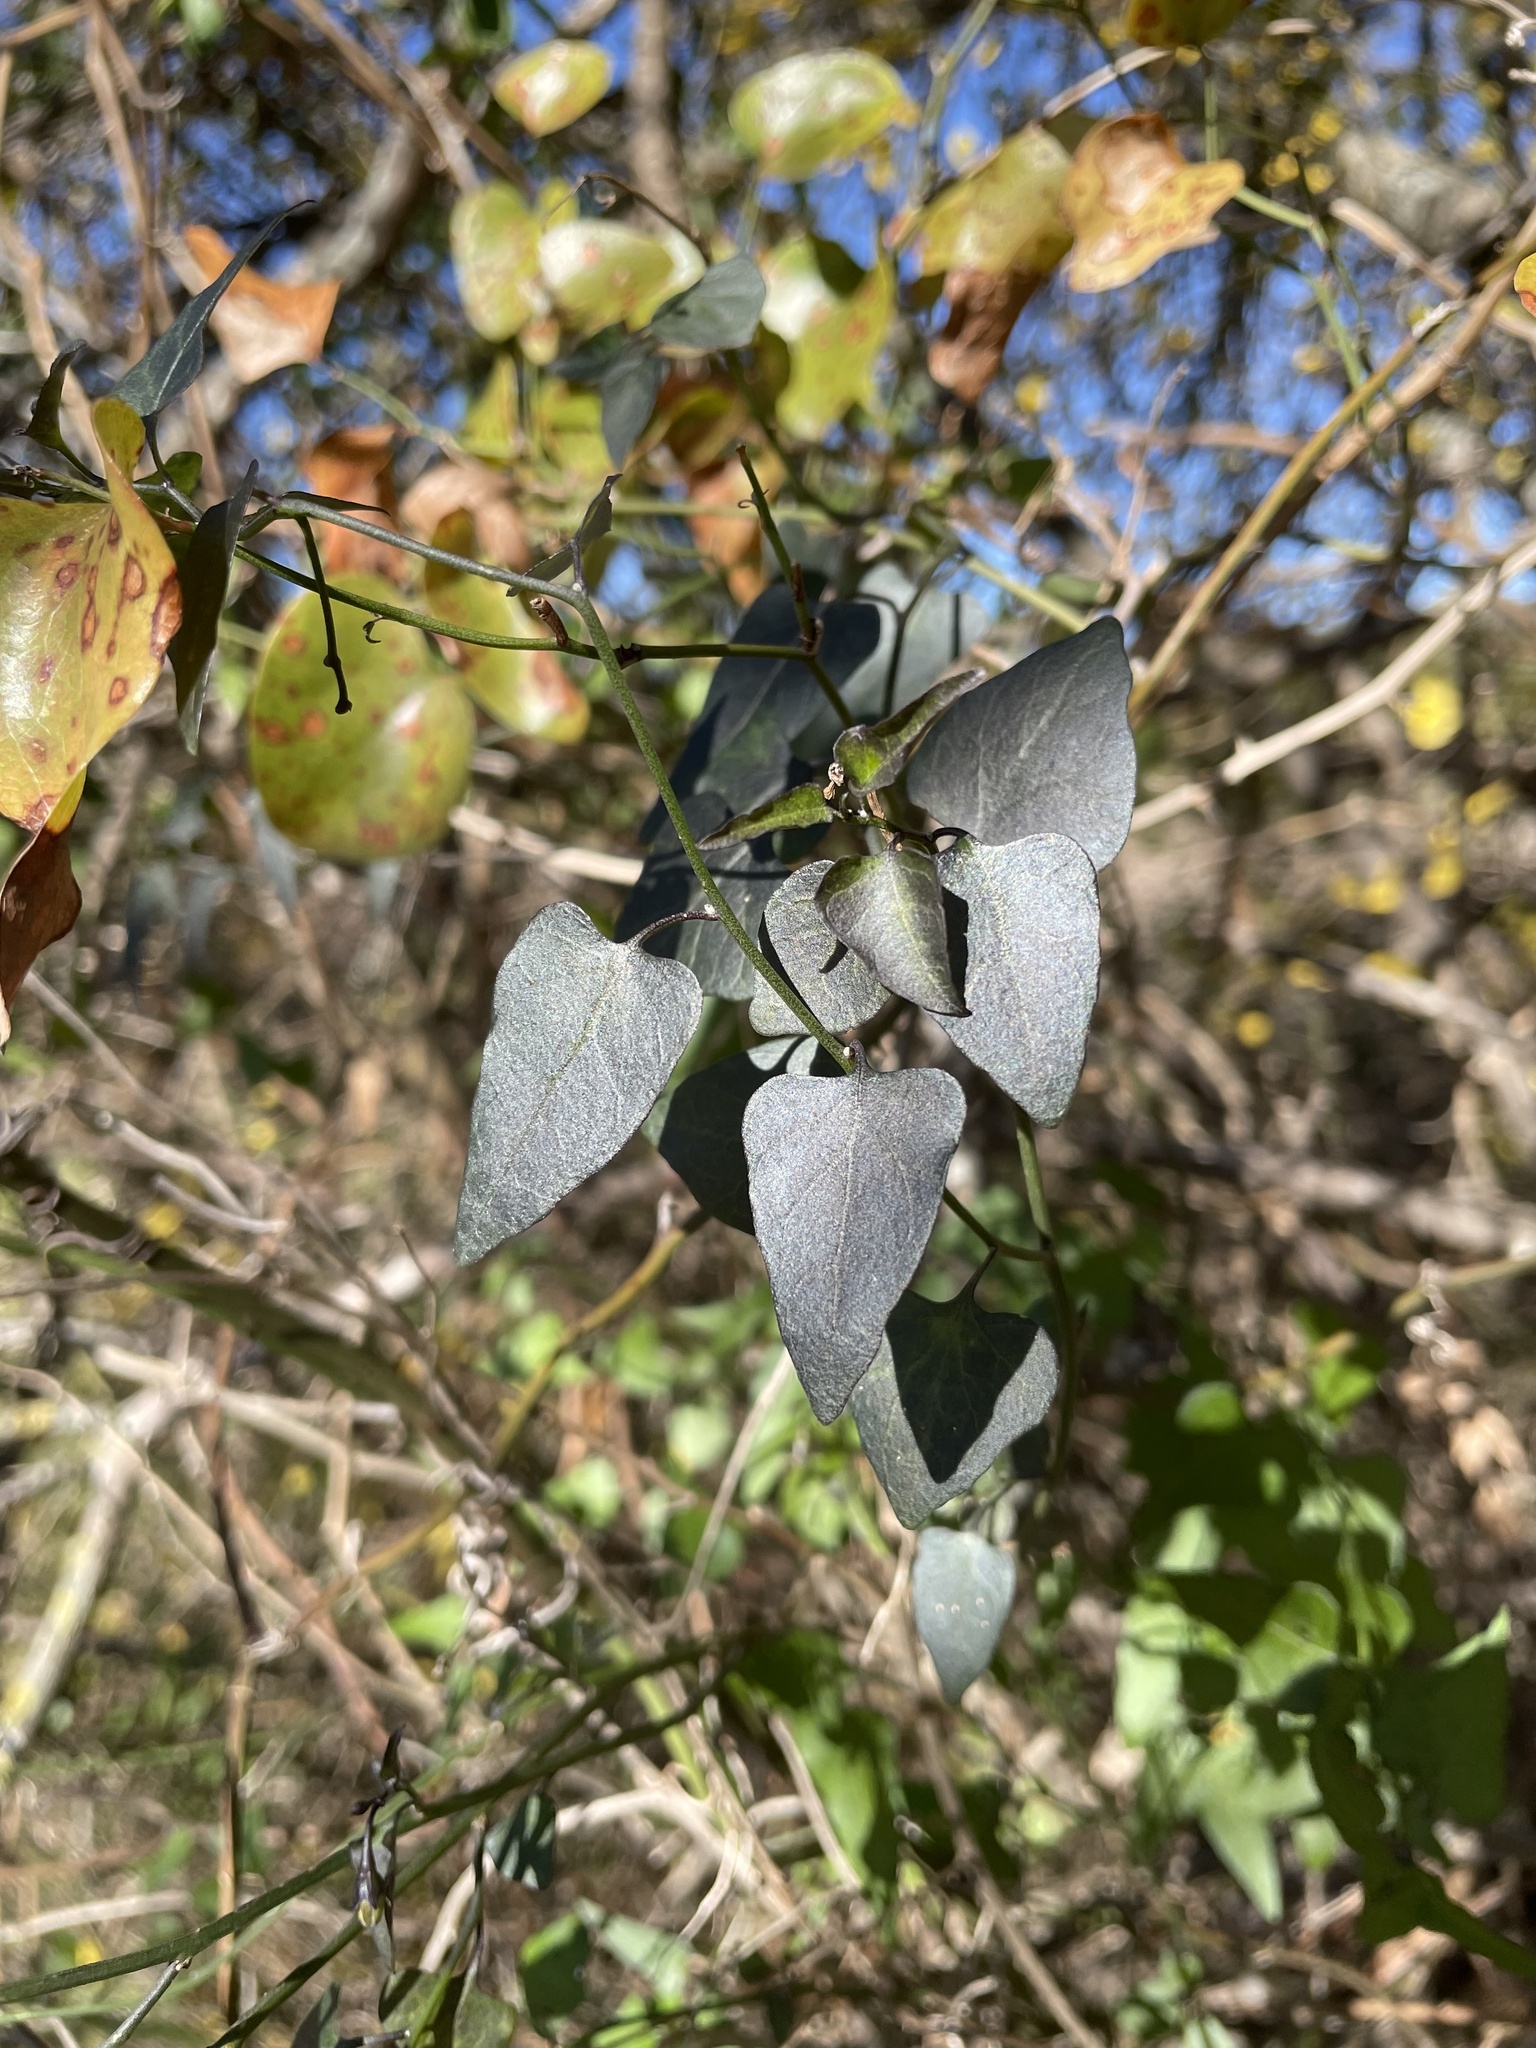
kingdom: Plantae
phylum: Tracheophyta
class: Magnoliopsida
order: Solanales
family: Solanaceae
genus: Solanum
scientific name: Solanum triquetrum
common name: Texas nightshade
